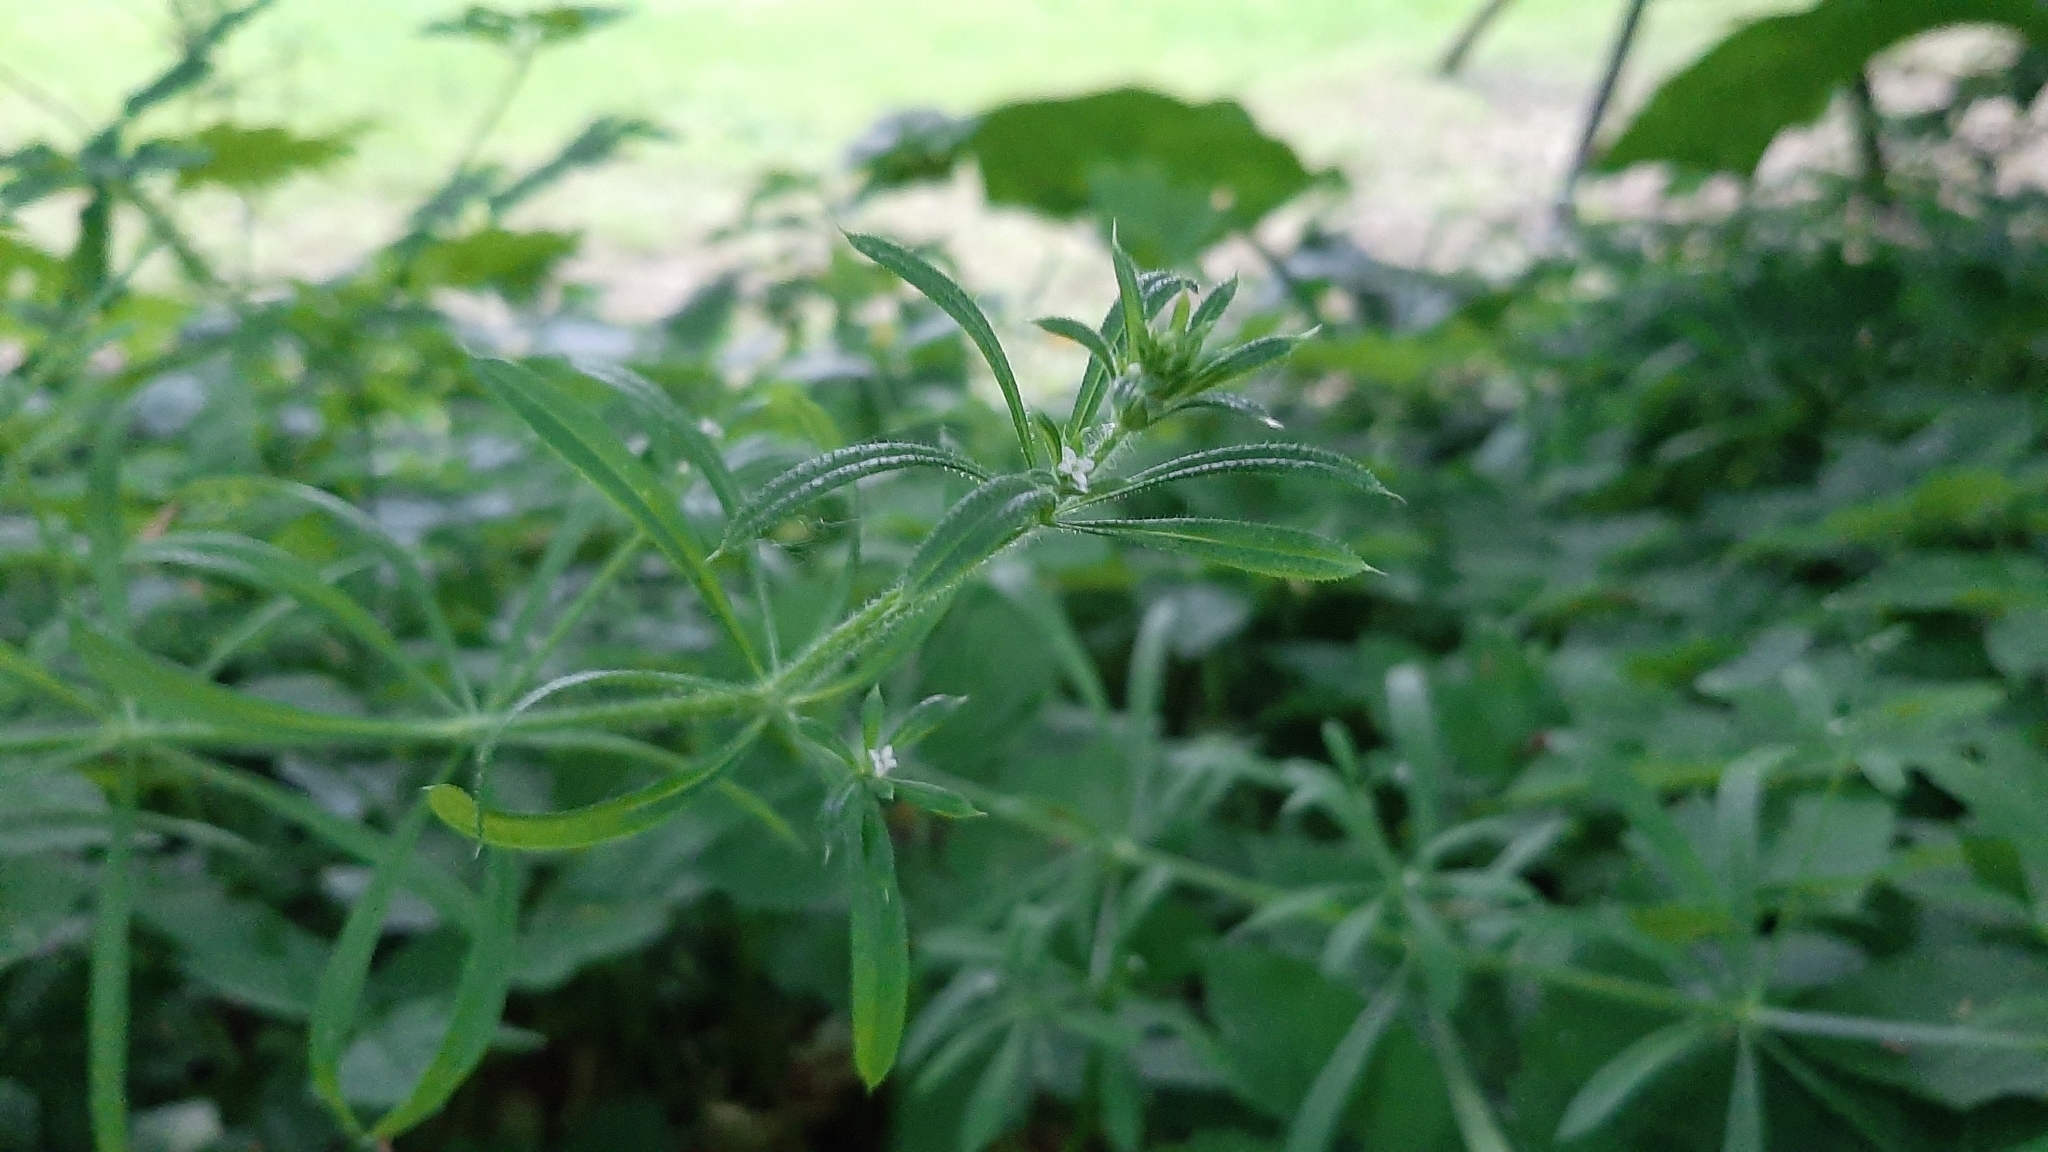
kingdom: Plantae
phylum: Tracheophyta
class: Magnoliopsida
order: Gentianales
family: Rubiaceae
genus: Galium
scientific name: Galium aparine
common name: Cleavers
